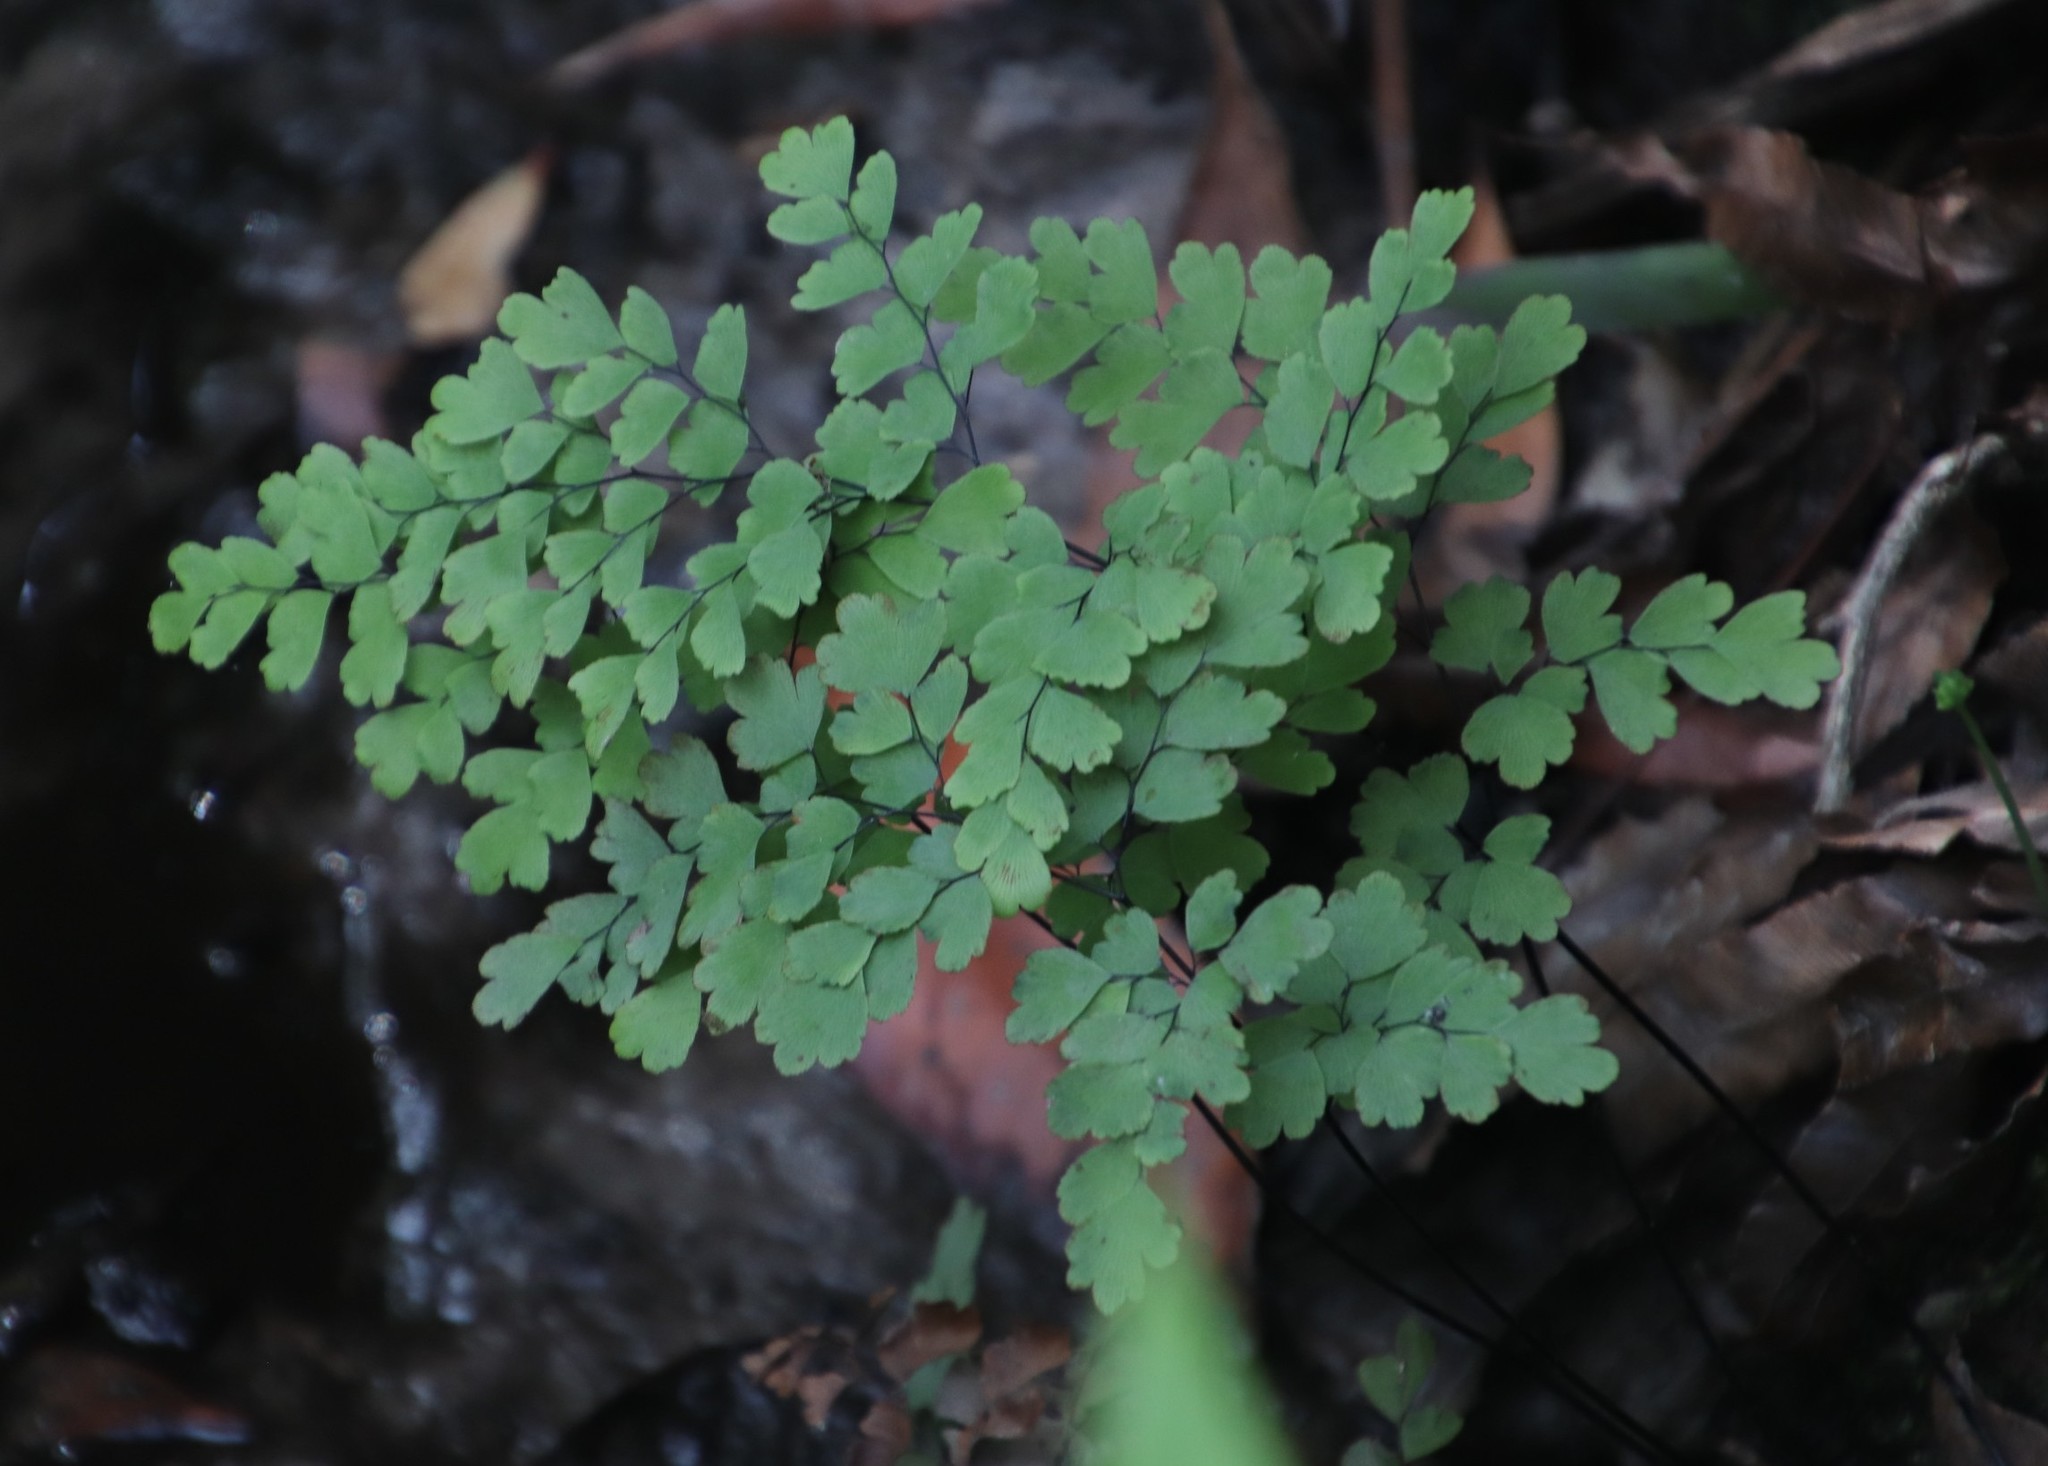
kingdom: Plantae
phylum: Tracheophyta
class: Polypodiopsida
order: Polypodiales
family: Pteridaceae
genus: Adiantum
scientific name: Adiantum capillus-veneris
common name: Maidenhair fern
